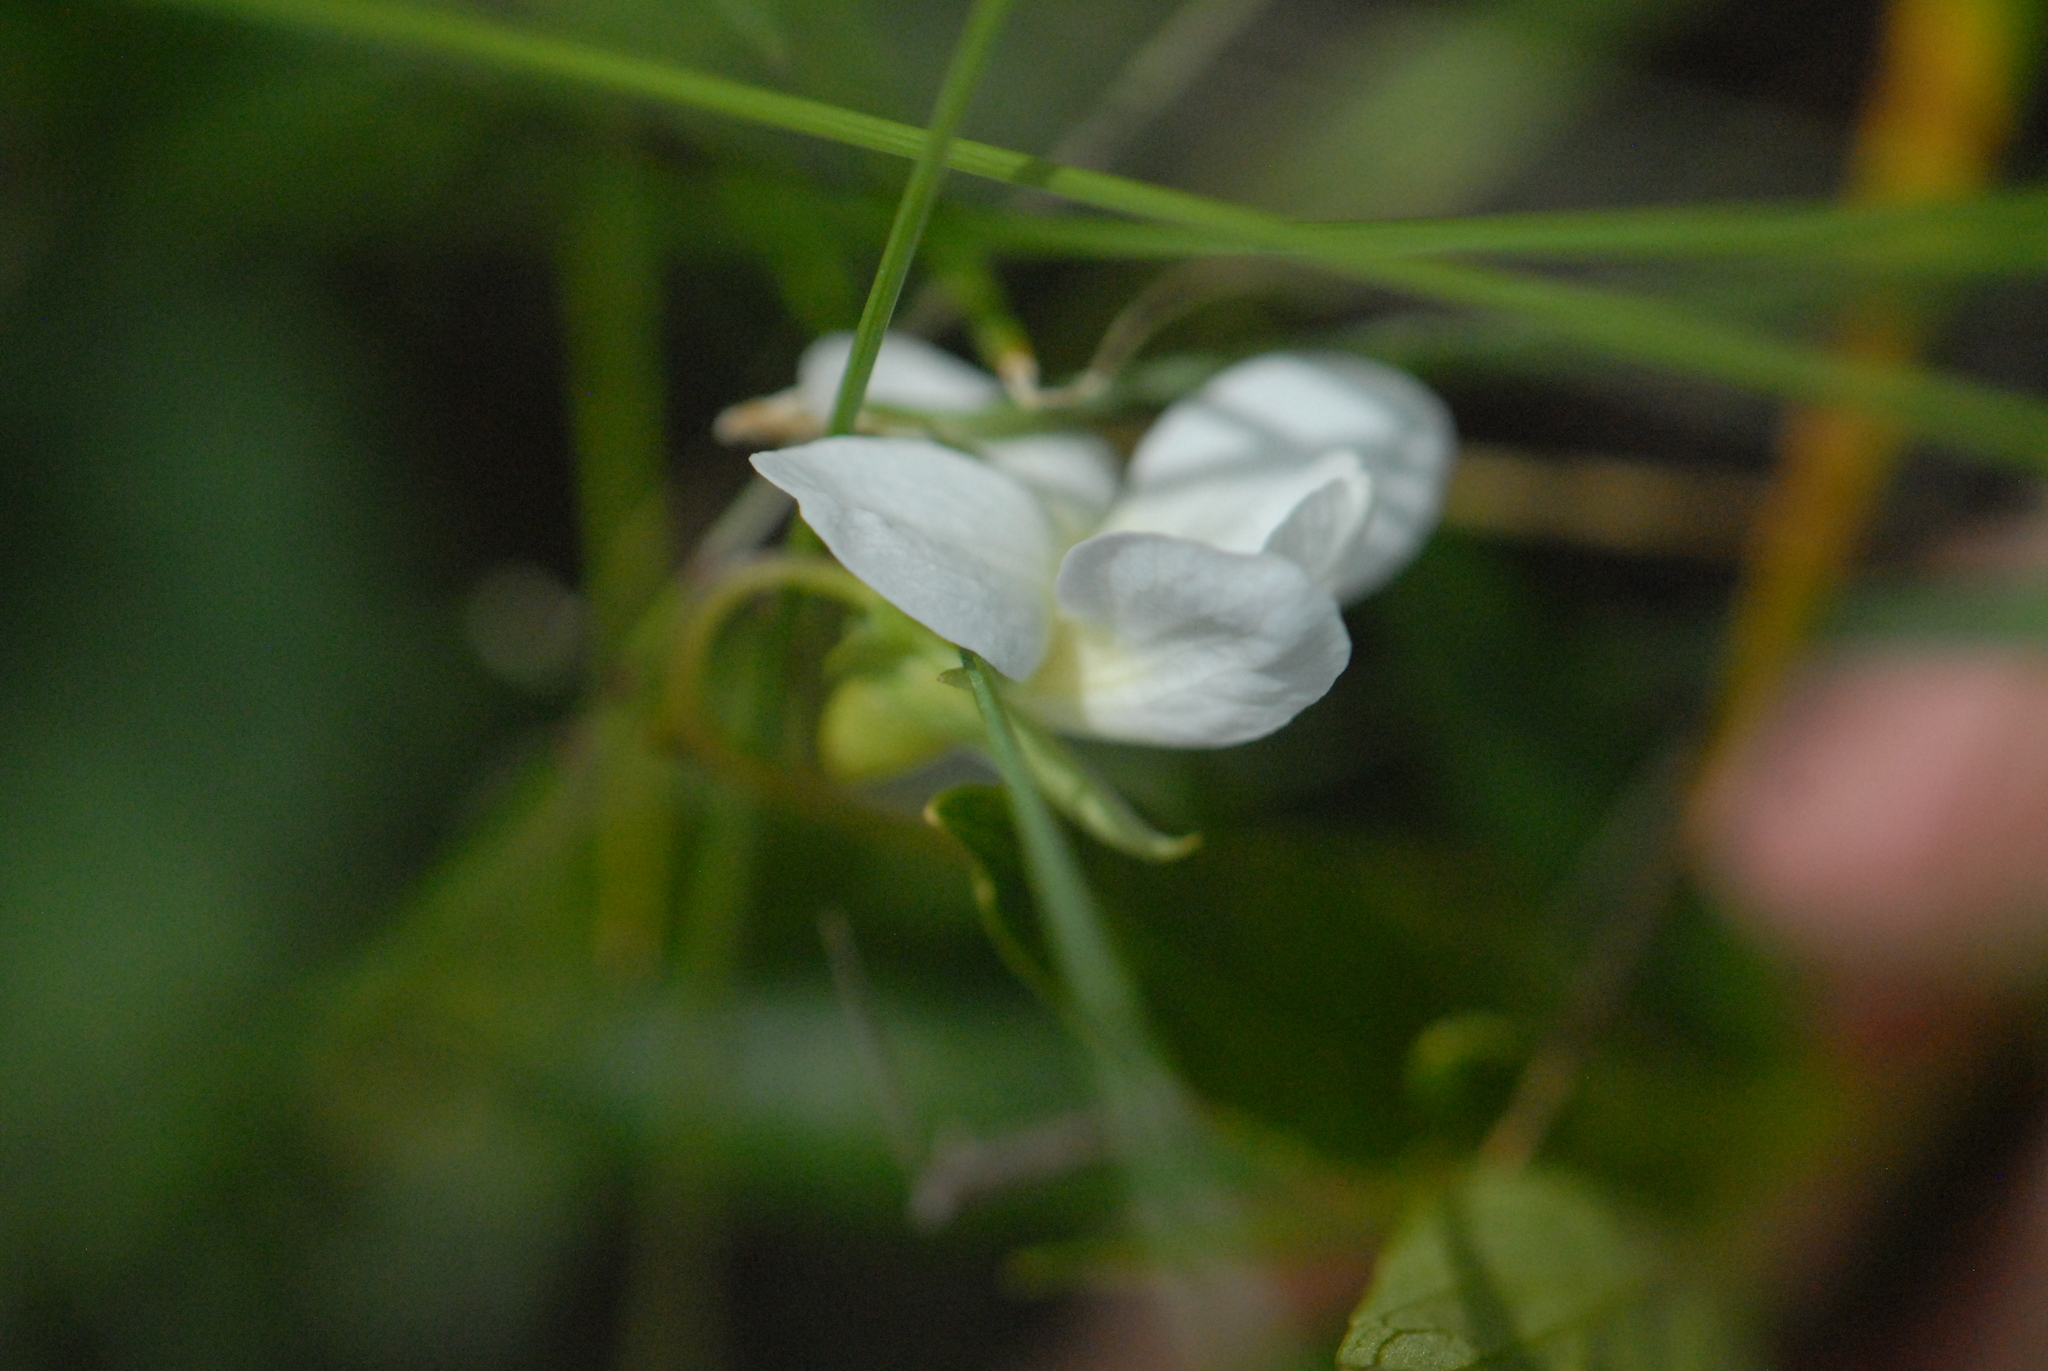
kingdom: Plantae
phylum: Tracheophyta
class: Magnoliopsida
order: Malpighiales
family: Violaceae
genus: Viola
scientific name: Viola pumila
